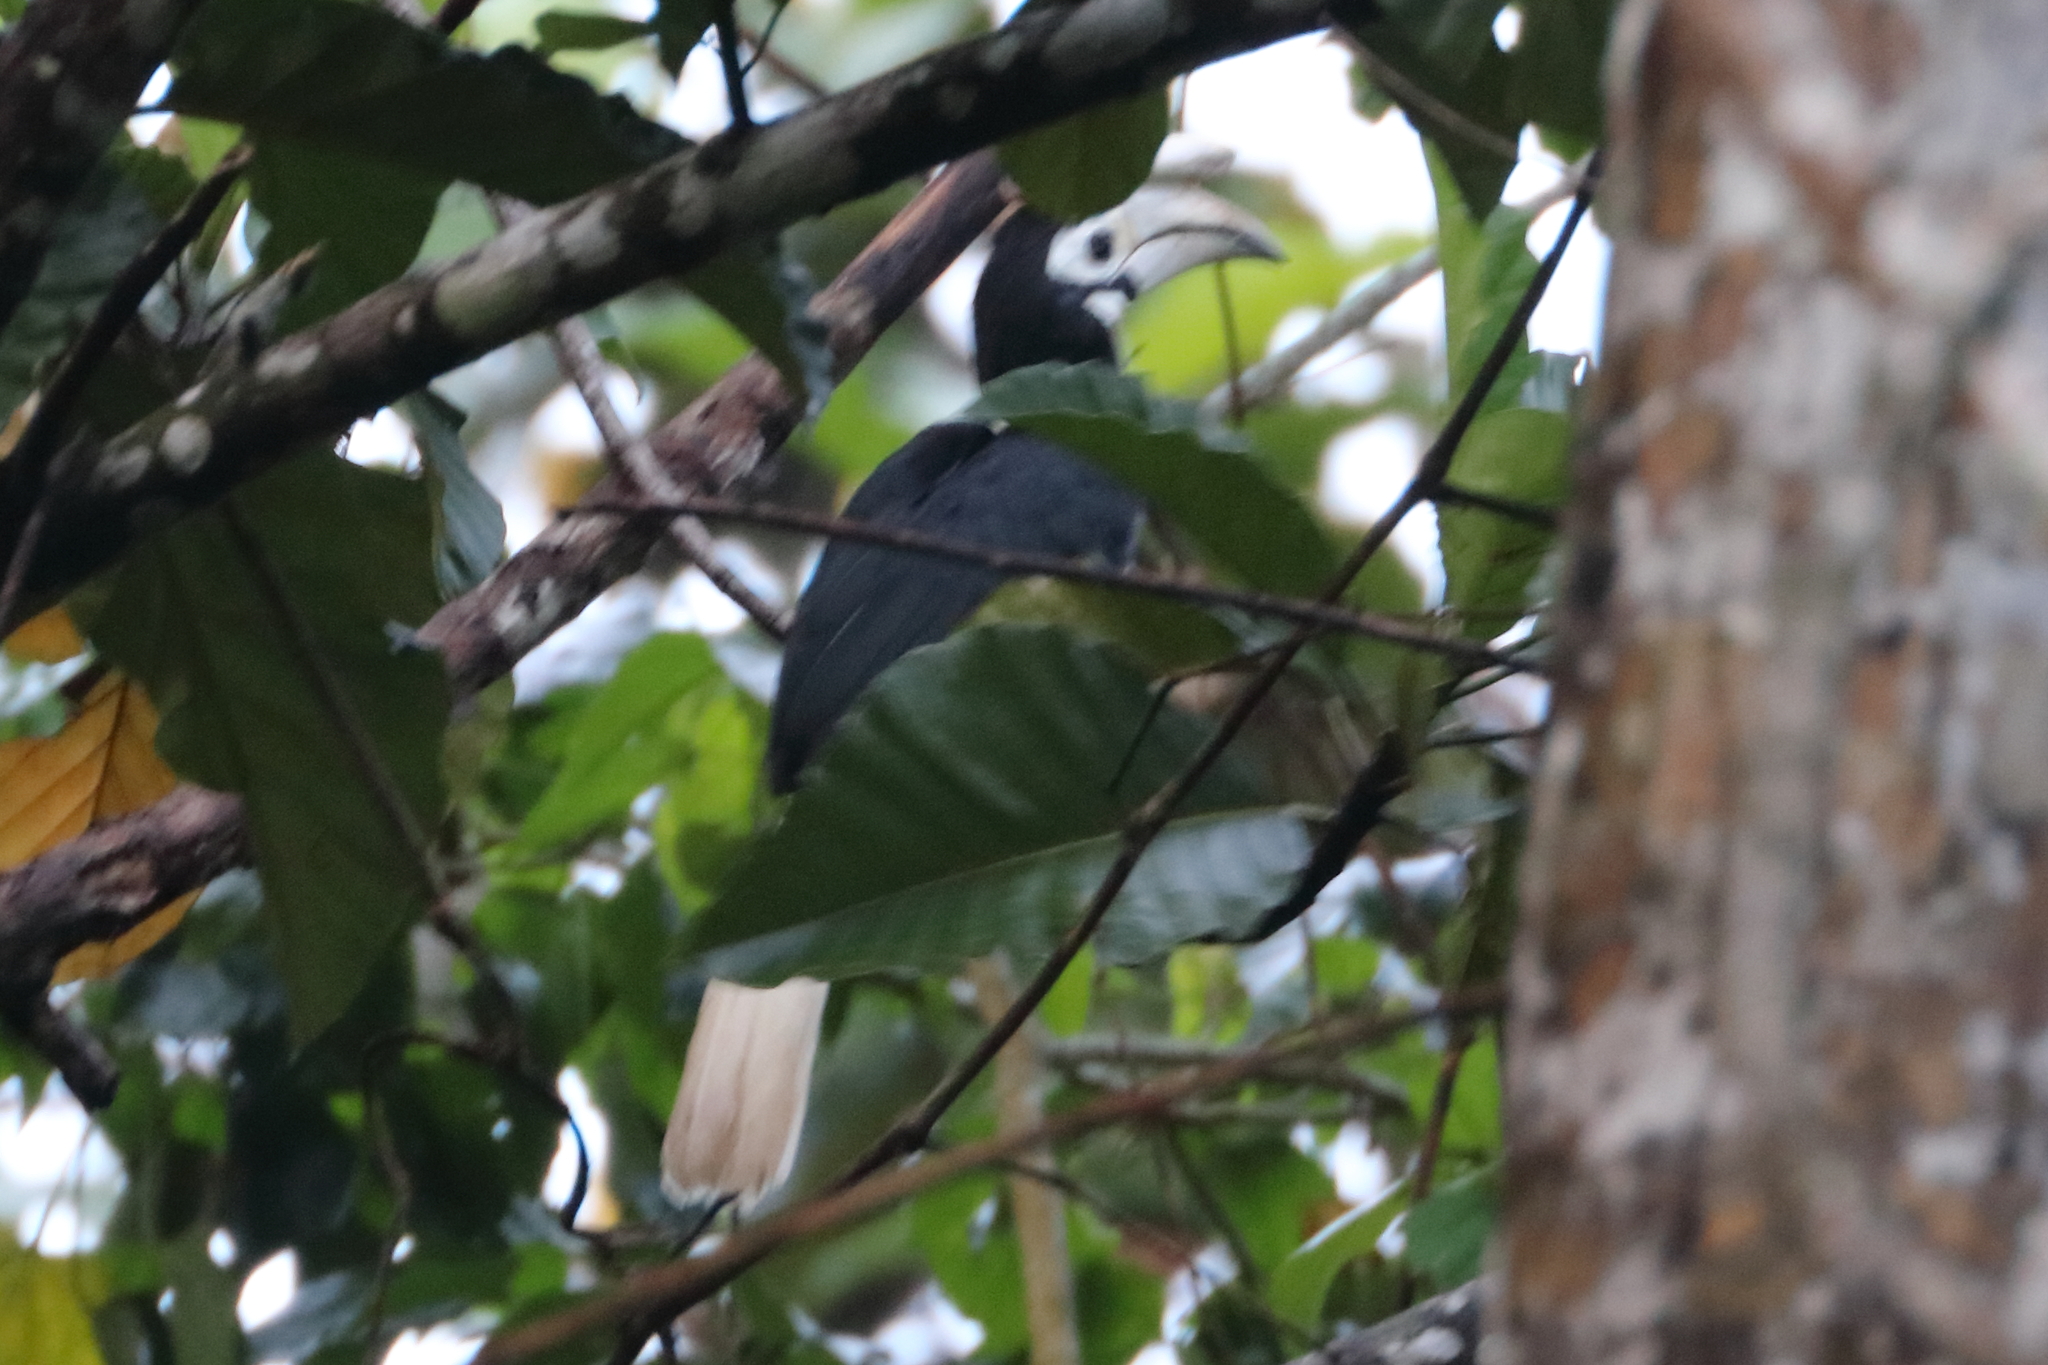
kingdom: Animalia
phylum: Chordata
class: Aves
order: Bucerotiformes
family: Bucerotidae
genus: Anthracoceros
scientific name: Anthracoceros marchei
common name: Palawan hornbill
